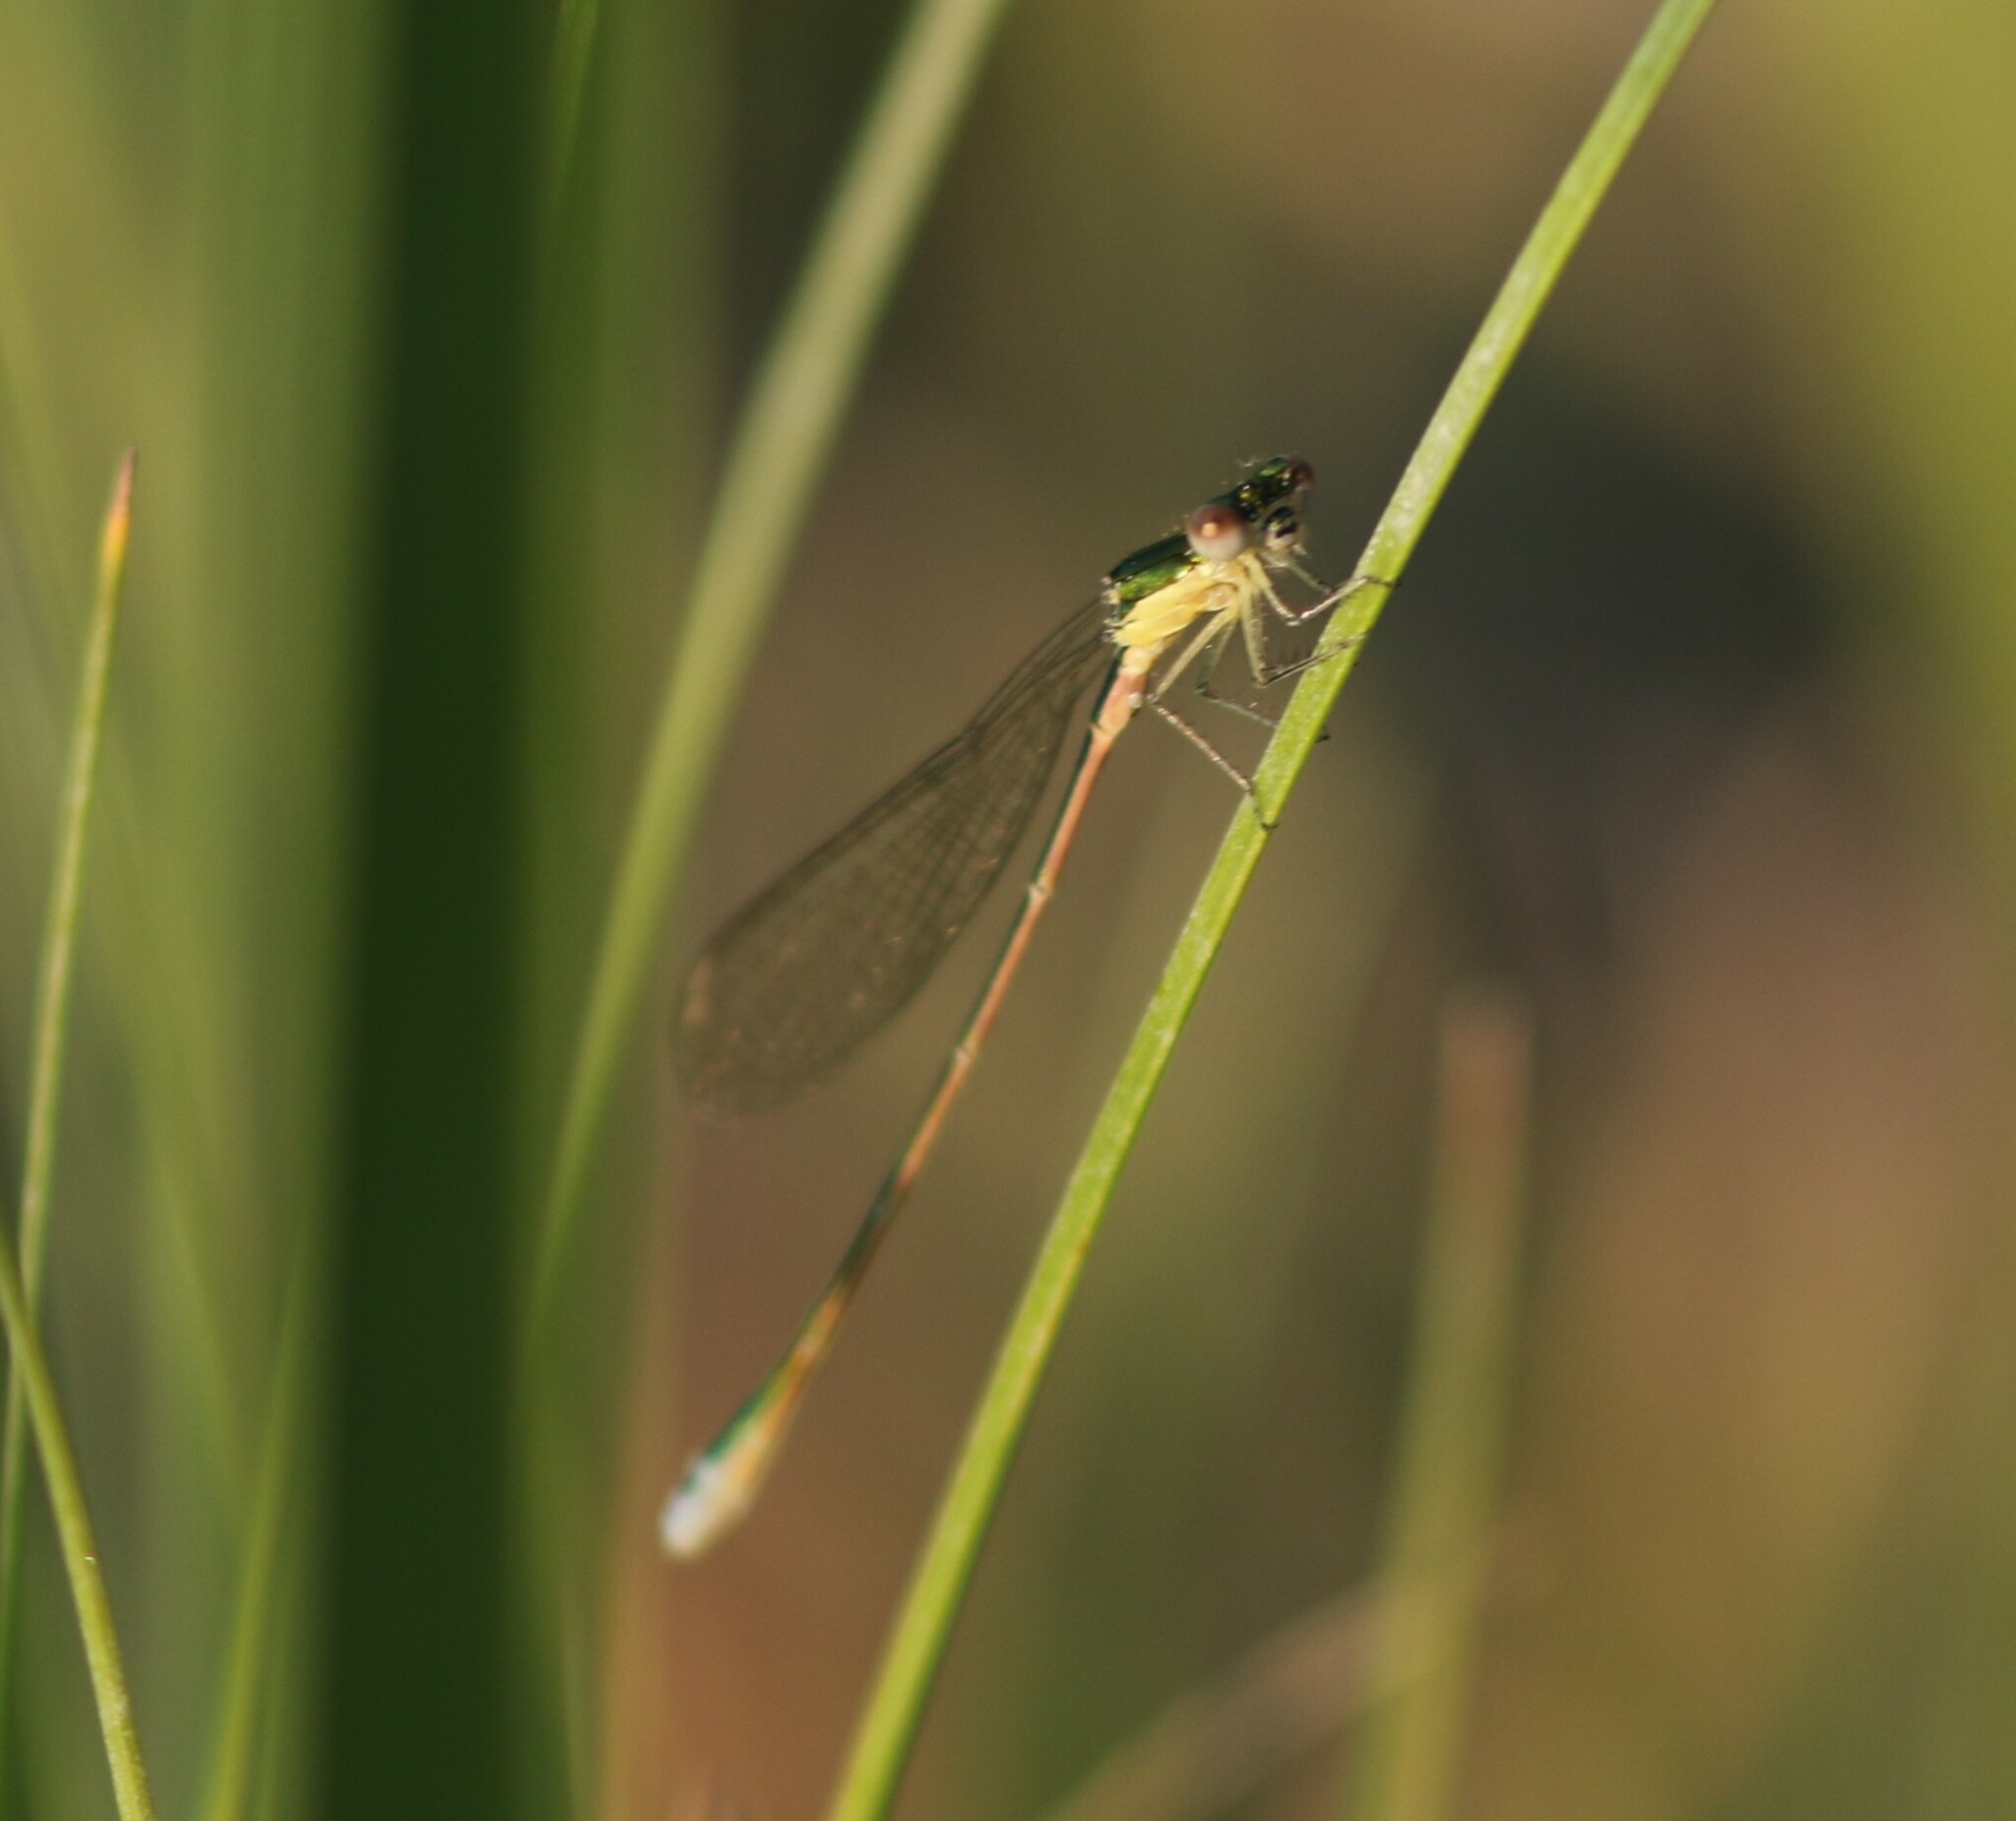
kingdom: Animalia
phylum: Arthropoda
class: Insecta
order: Odonata
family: Coenagrionidae
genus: Nehalennia
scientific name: Nehalennia irene
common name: Sedge sprite
